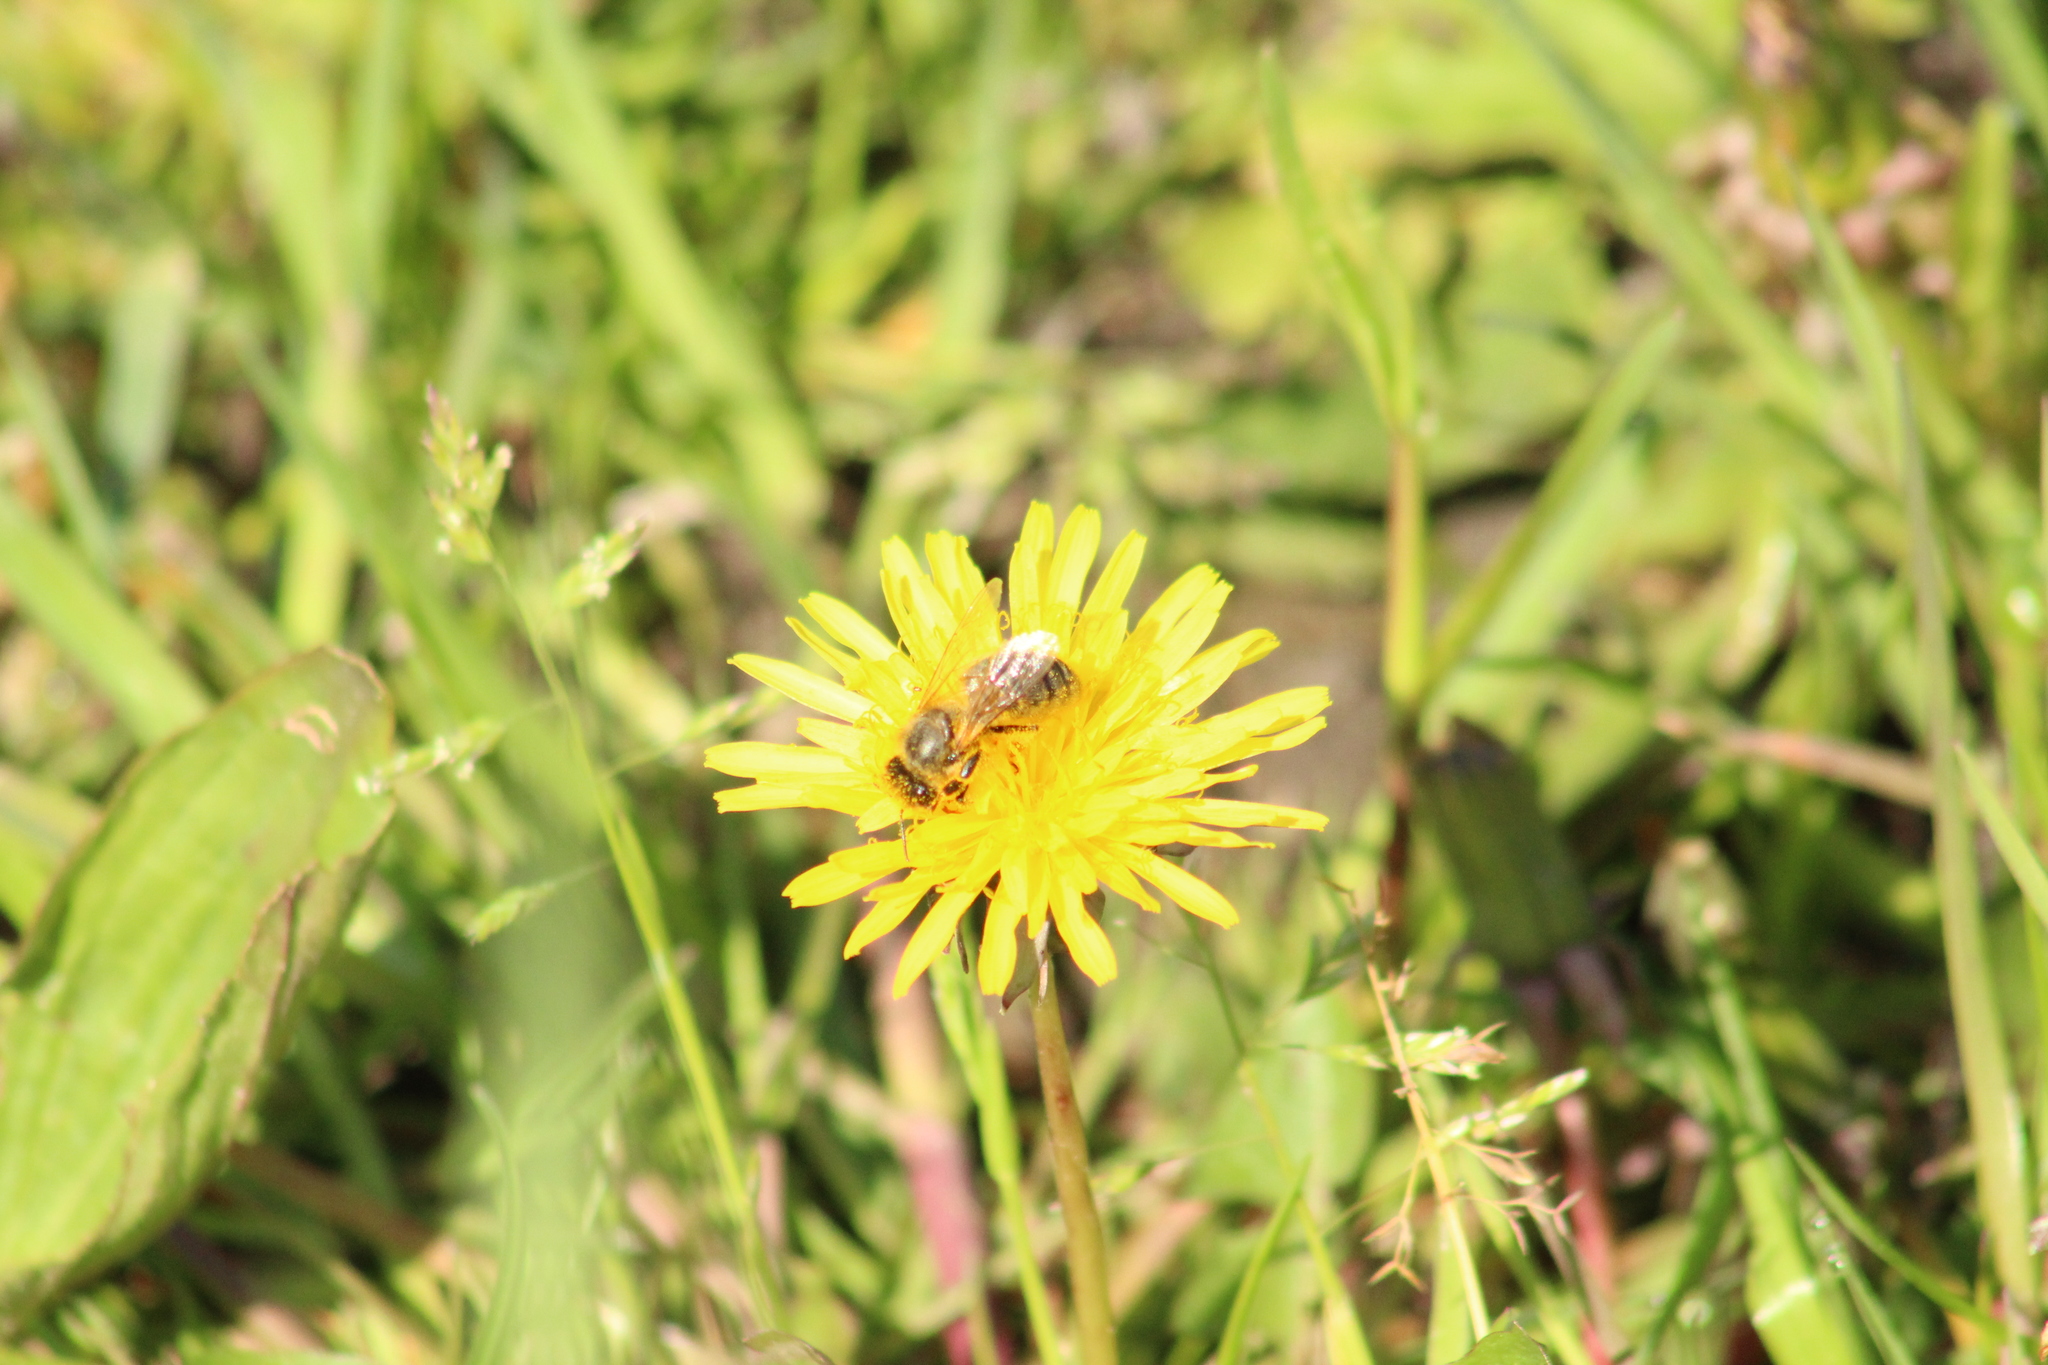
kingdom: Animalia
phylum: Arthropoda
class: Insecta
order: Hymenoptera
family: Apidae
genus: Apis
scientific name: Apis mellifera
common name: Honey bee
